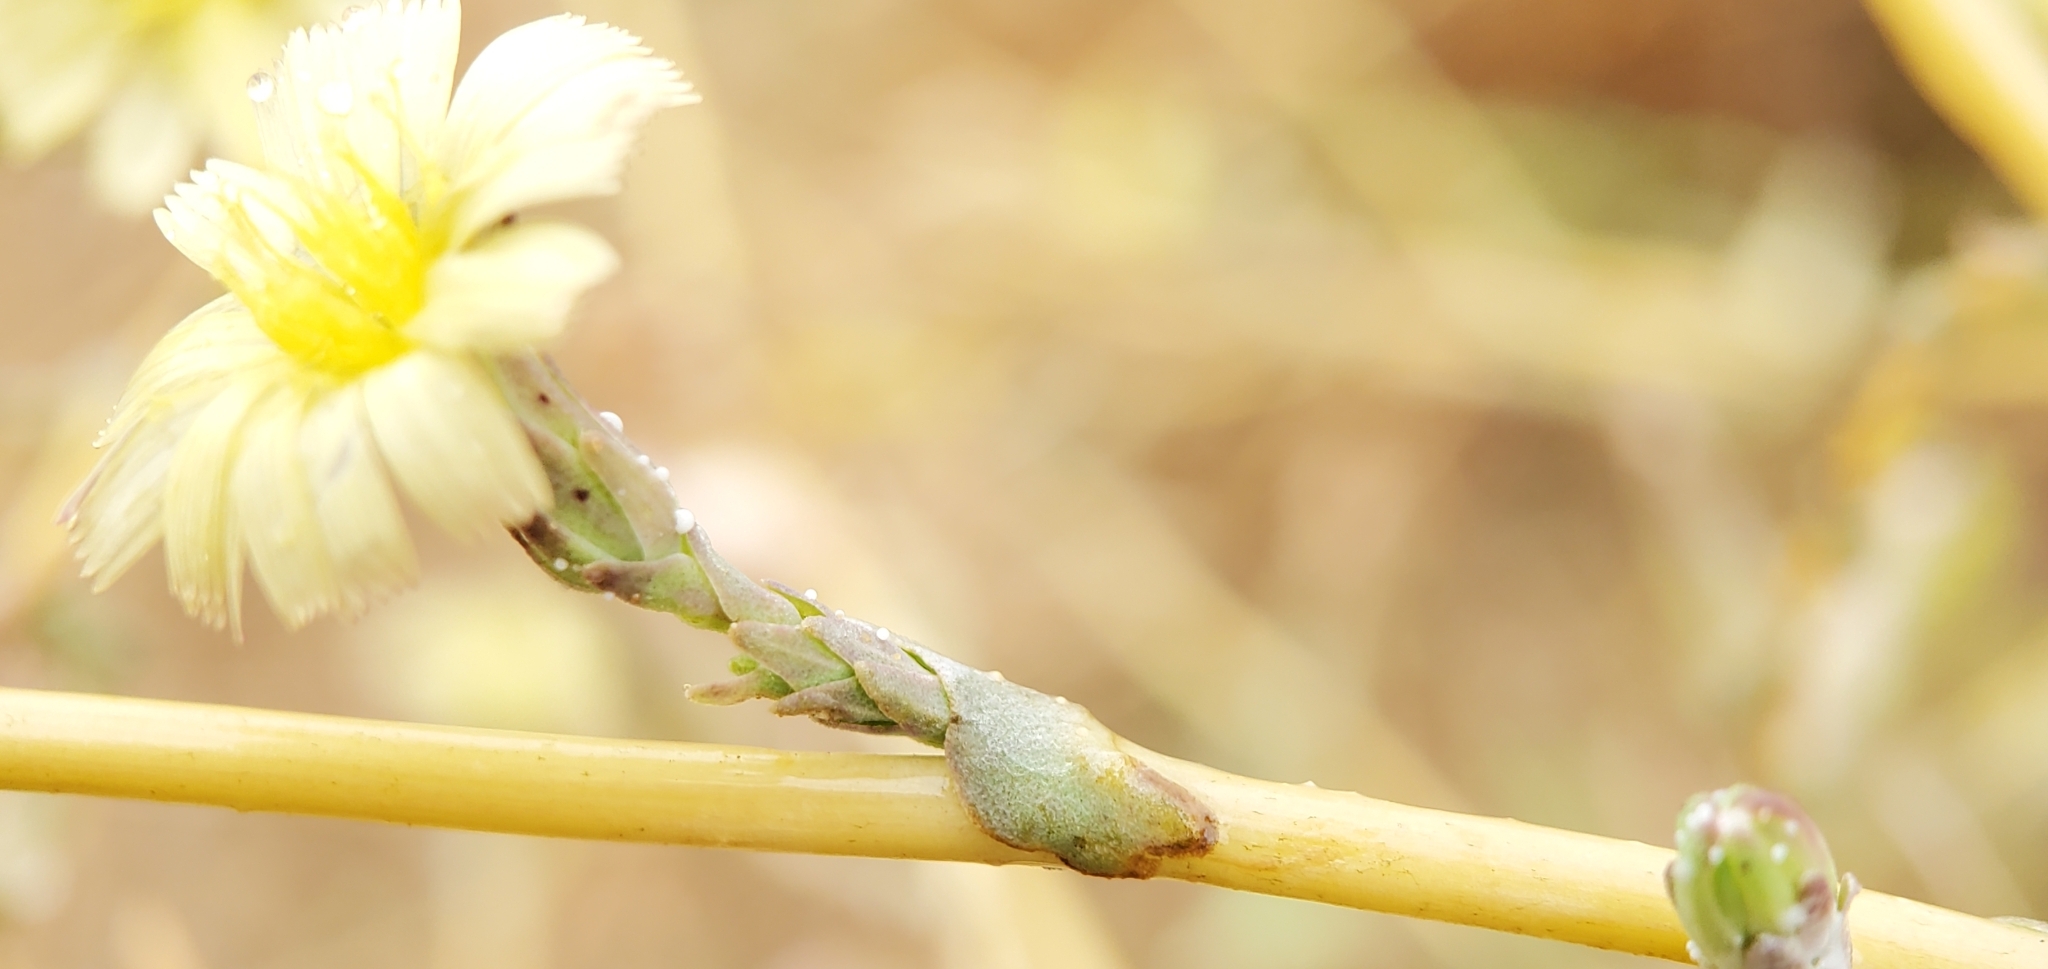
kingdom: Plantae
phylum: Tracheophyta
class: Magnoliopsida
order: Asterales
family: Asteraceae
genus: Lactuca
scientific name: Lactuca serriola
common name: Prickly lettuce
